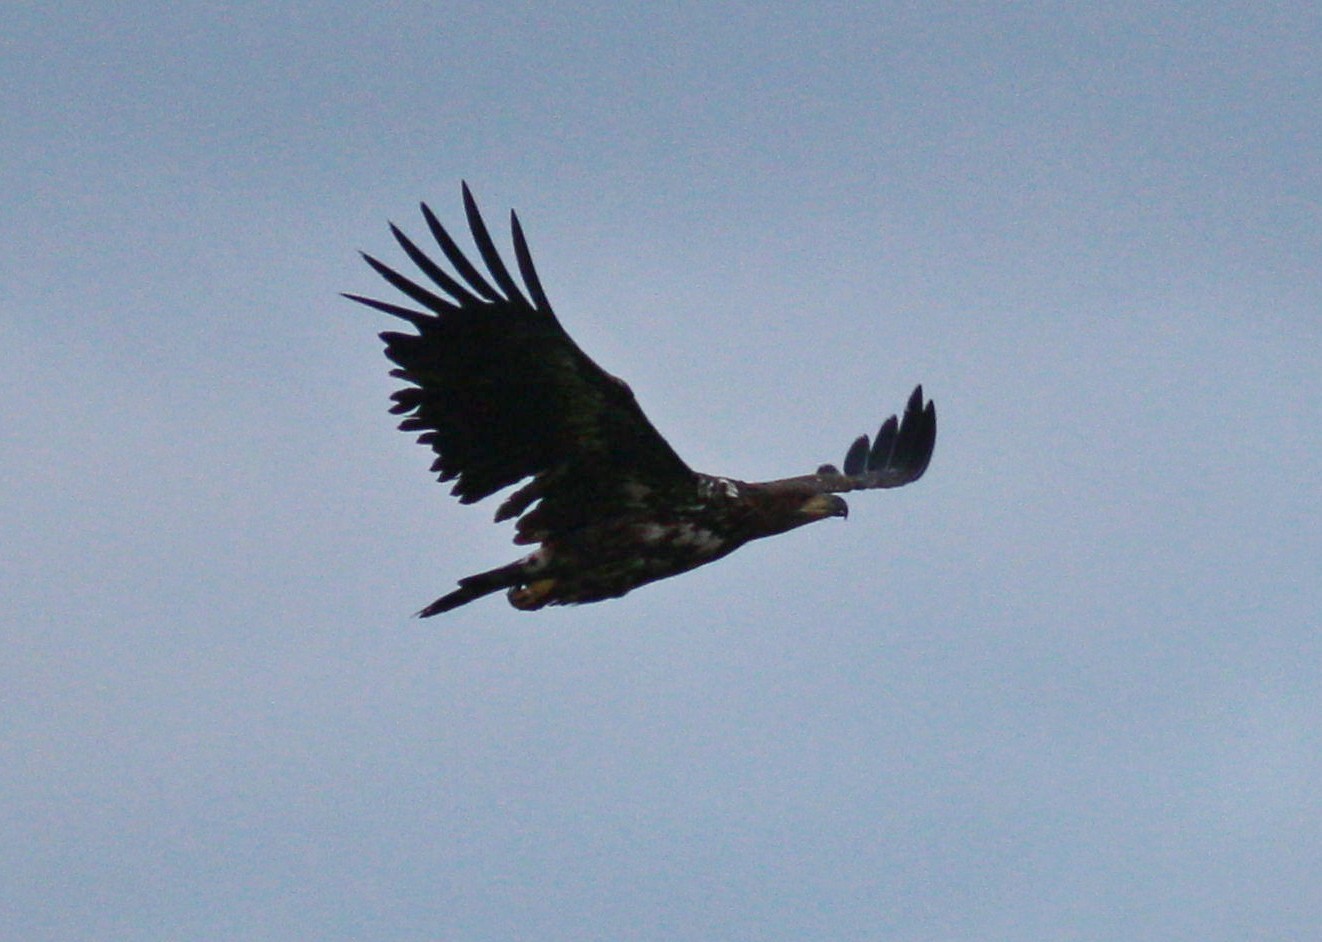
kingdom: Animalia
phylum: Chordata
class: Aves
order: Accipitriformes
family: Accipitridae
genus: Haliaeetus
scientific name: Haliaeetus albicilla
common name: White-tailed eagle
